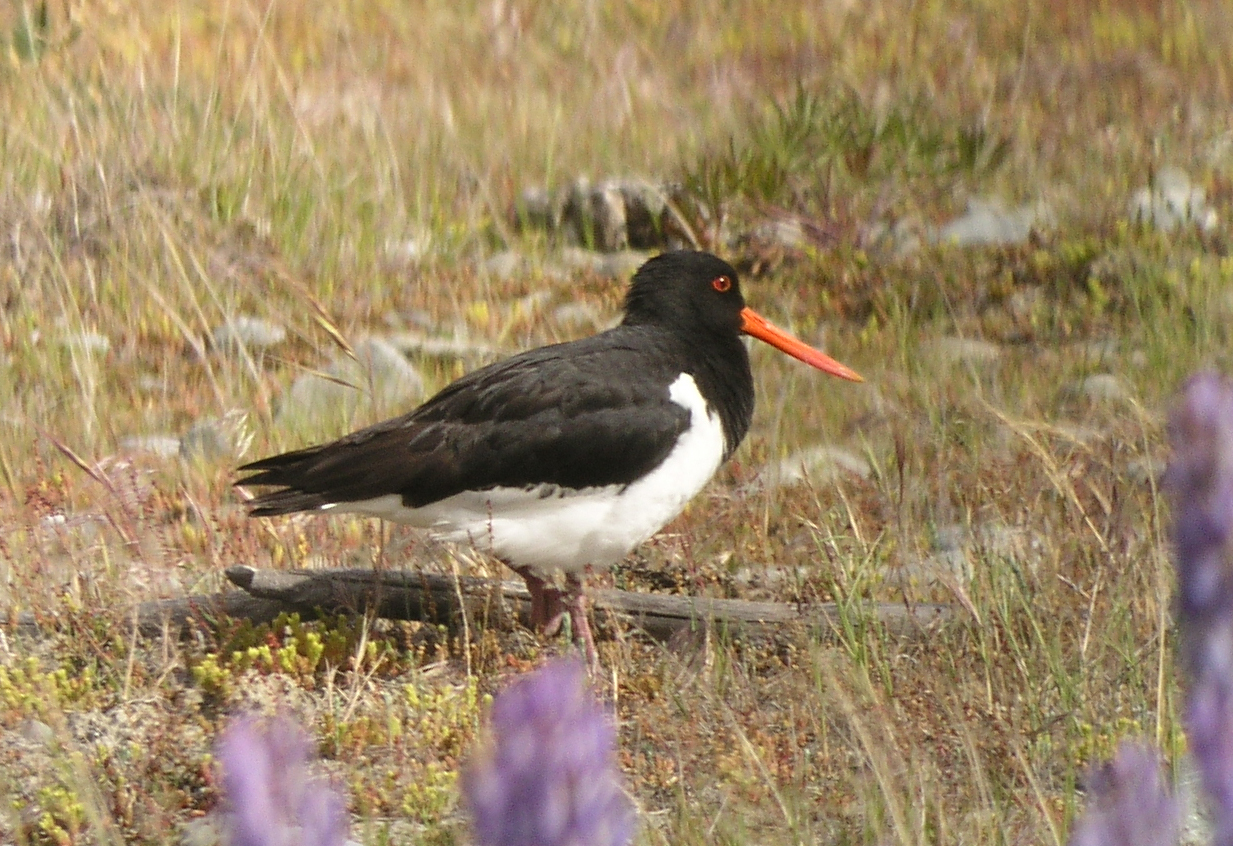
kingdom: Animalia
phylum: Chordata
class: Aves
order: Charadriiformes
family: Haematopodidae
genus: Haematopus
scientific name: Haematopus finschi
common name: South island oystercatcher
